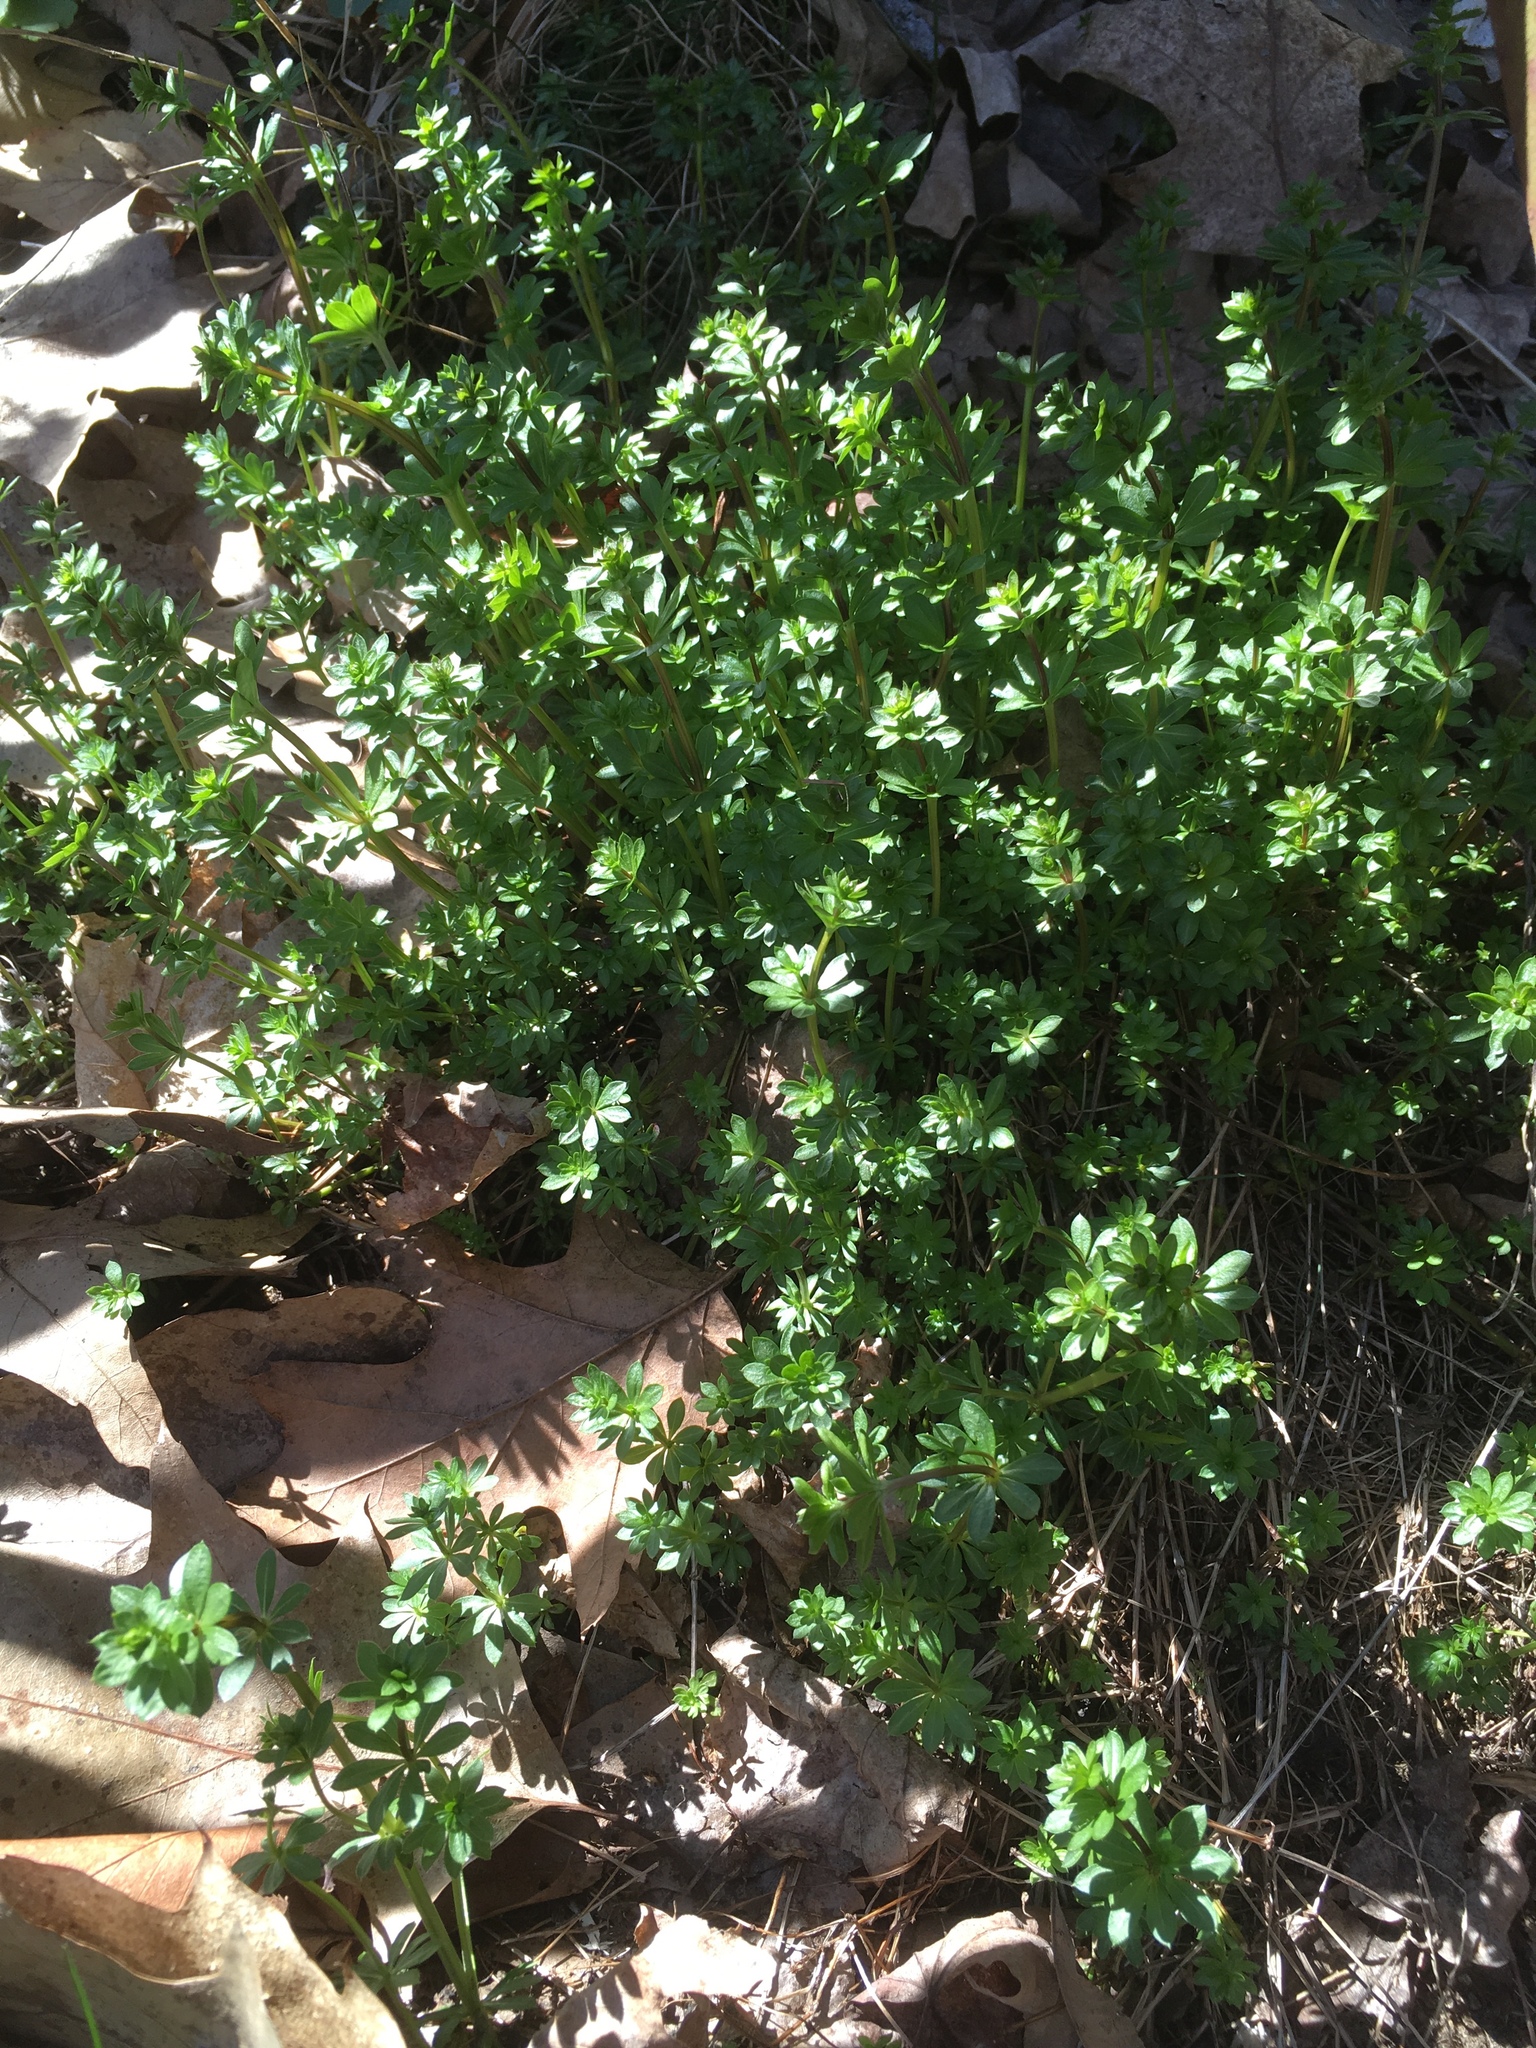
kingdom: Plantae
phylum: Tracheophyta
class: Magnoliopsida
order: Gentianales
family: Rubiaceae
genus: Galium
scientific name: Galium mollugo
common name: Hedge bedstraw
